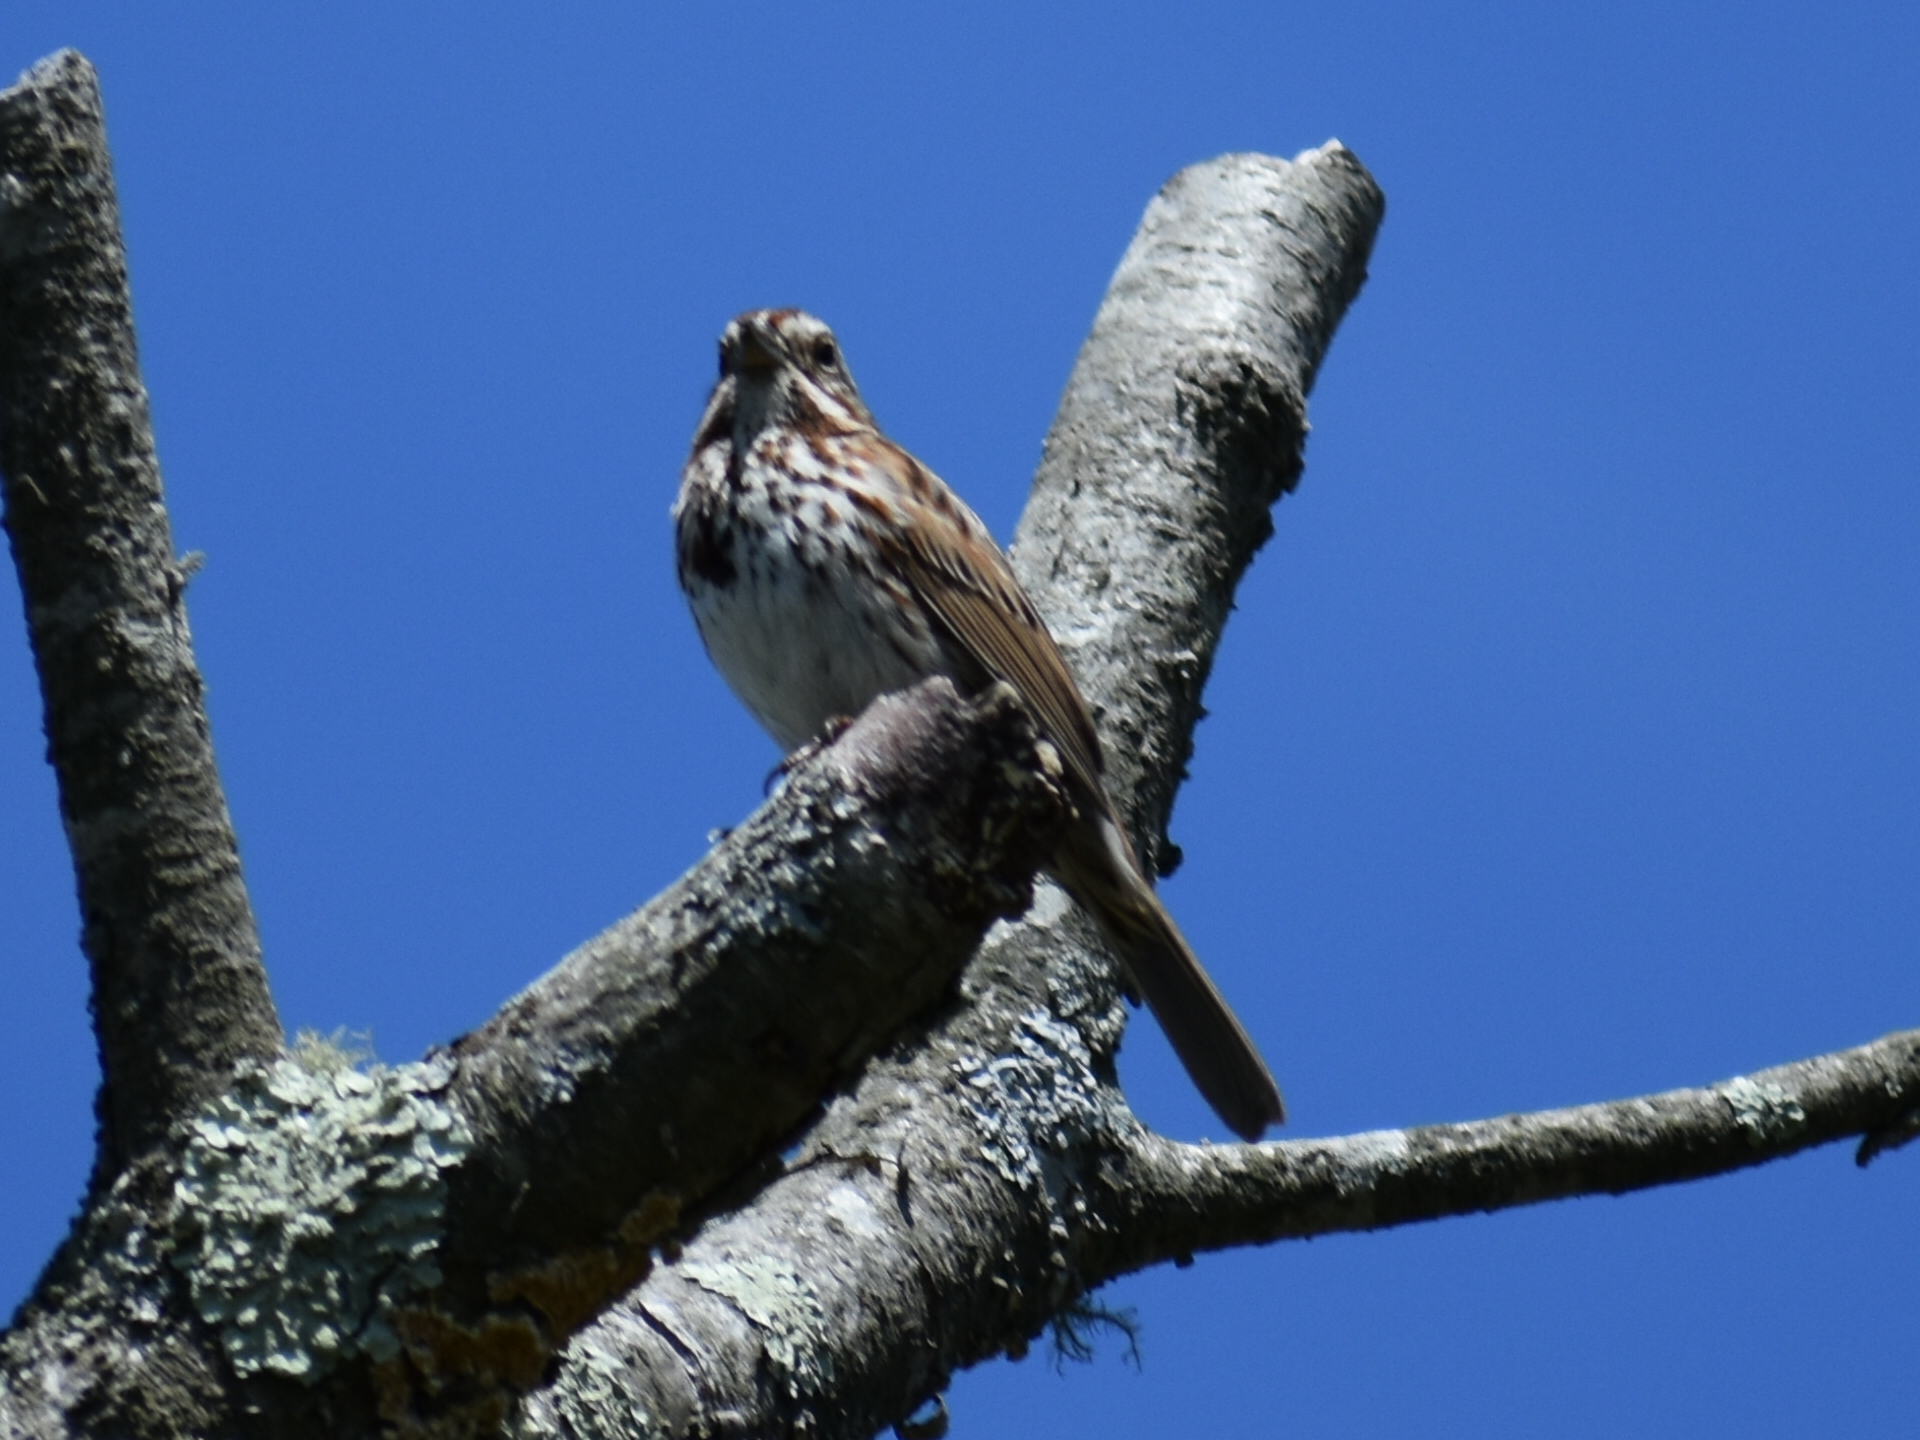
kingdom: Animalia
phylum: Chordata
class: Aves
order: Passeriformes
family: Passerellidae
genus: Melospiza
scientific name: Melospiza melodia
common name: Song sparrow
